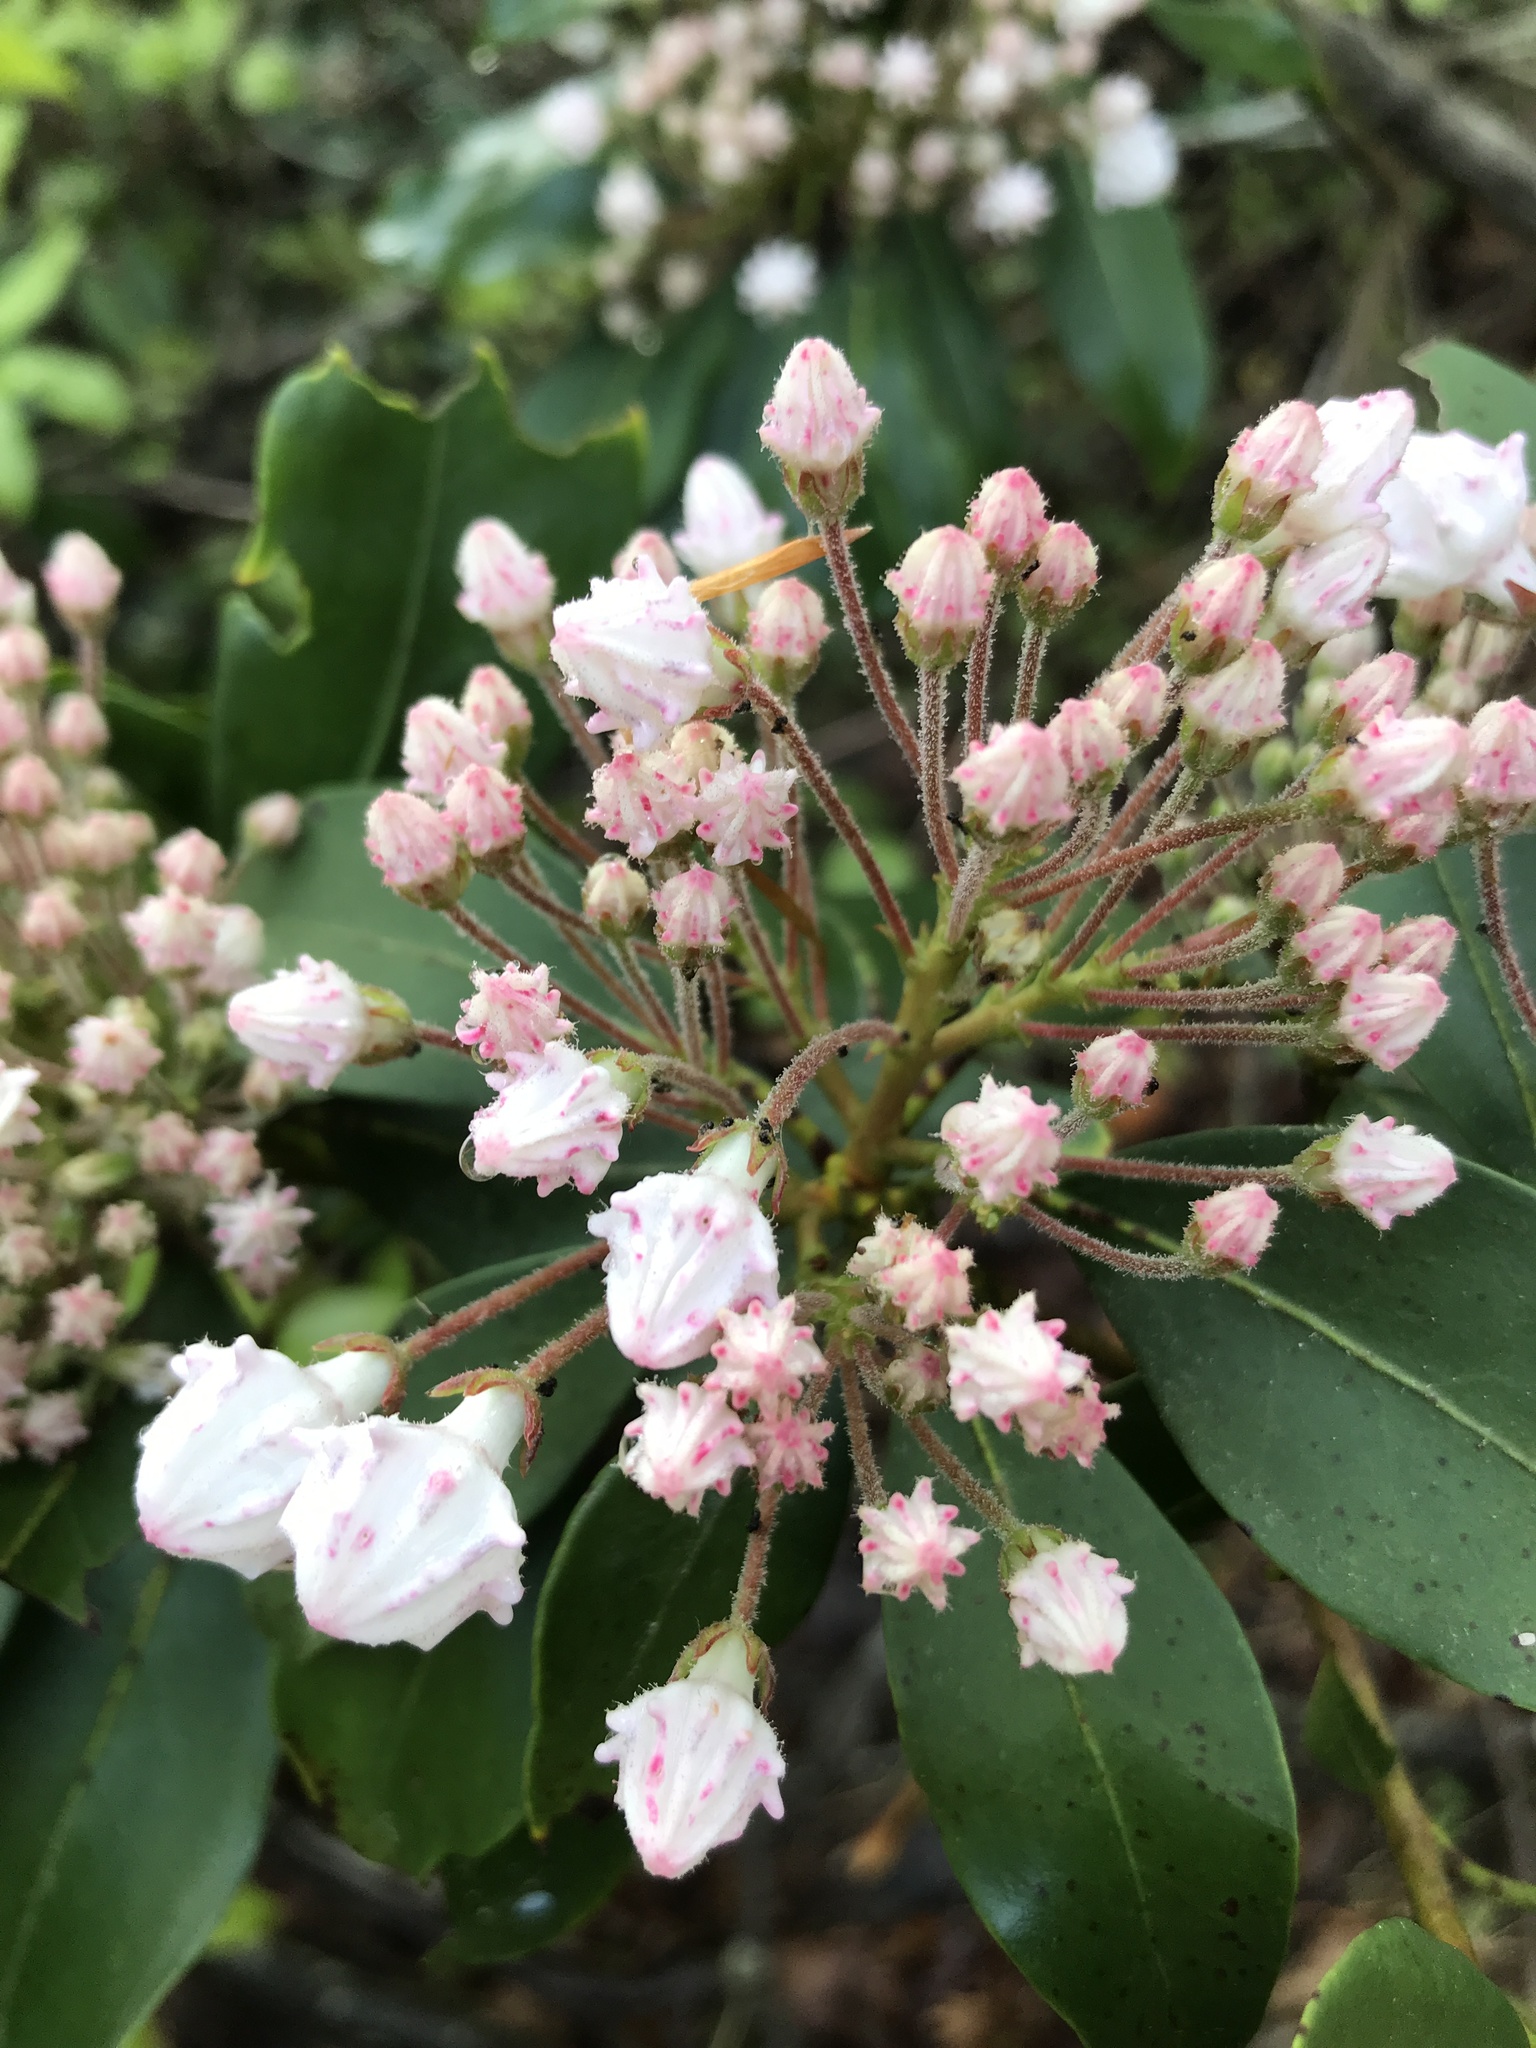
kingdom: Plantae
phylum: Tracheophyta
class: Magnoliopsida
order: Ericales
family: Ericaceae
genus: Kalmia
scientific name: Kalmia latifolia
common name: Mountain-laurel
